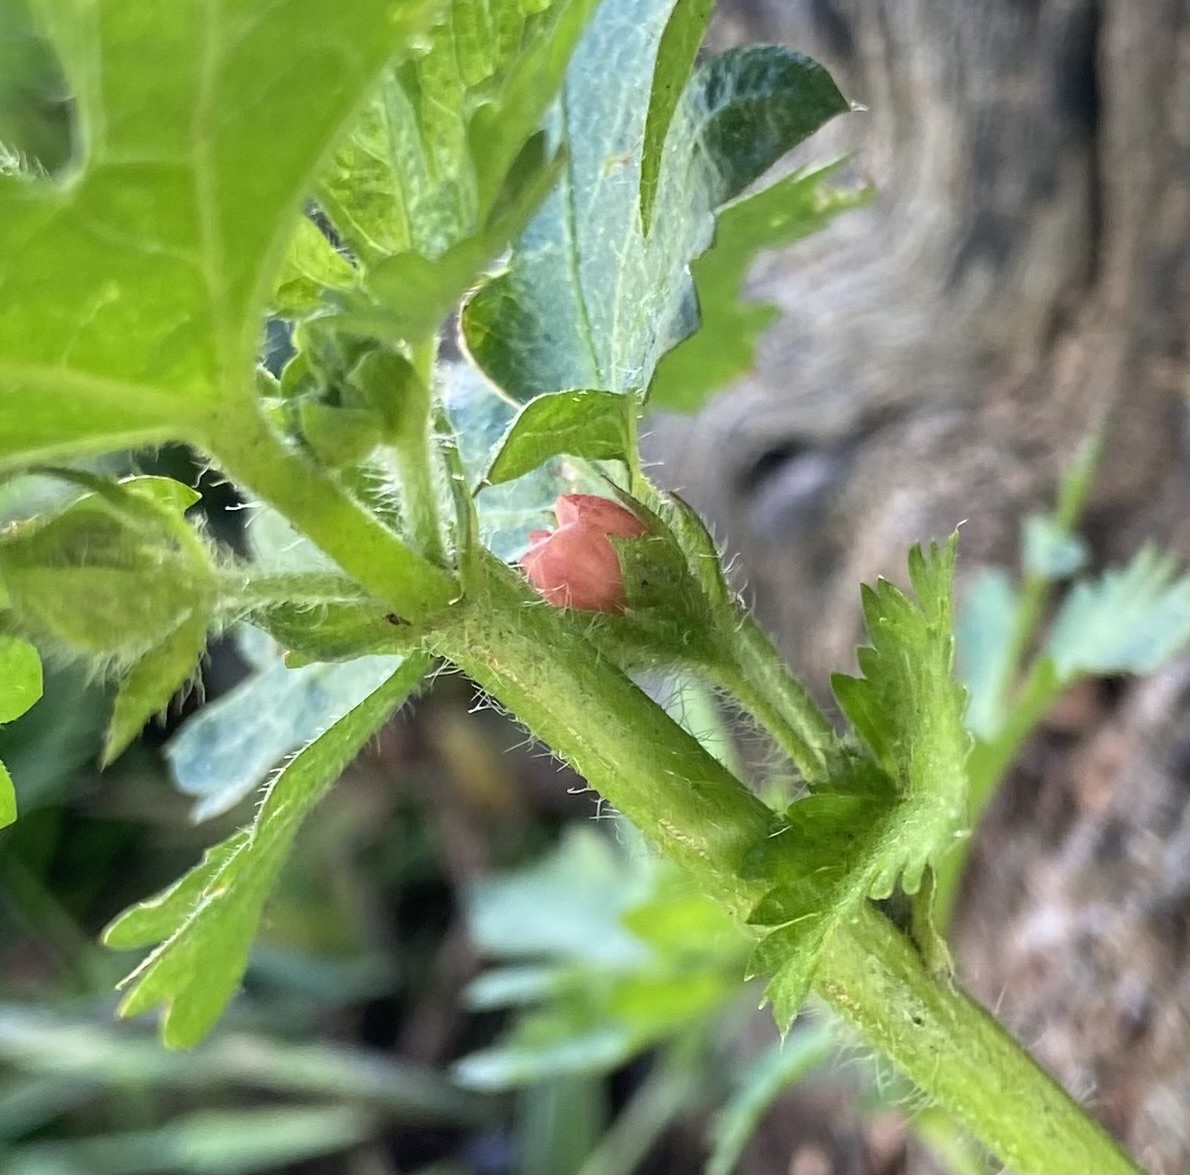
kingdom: Plantae
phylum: Tracheophyta
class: Magnoliopsida
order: Malvales
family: Malvaceae
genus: Modiola
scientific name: Modiola caroliniana
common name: Carolina bristlemallow
